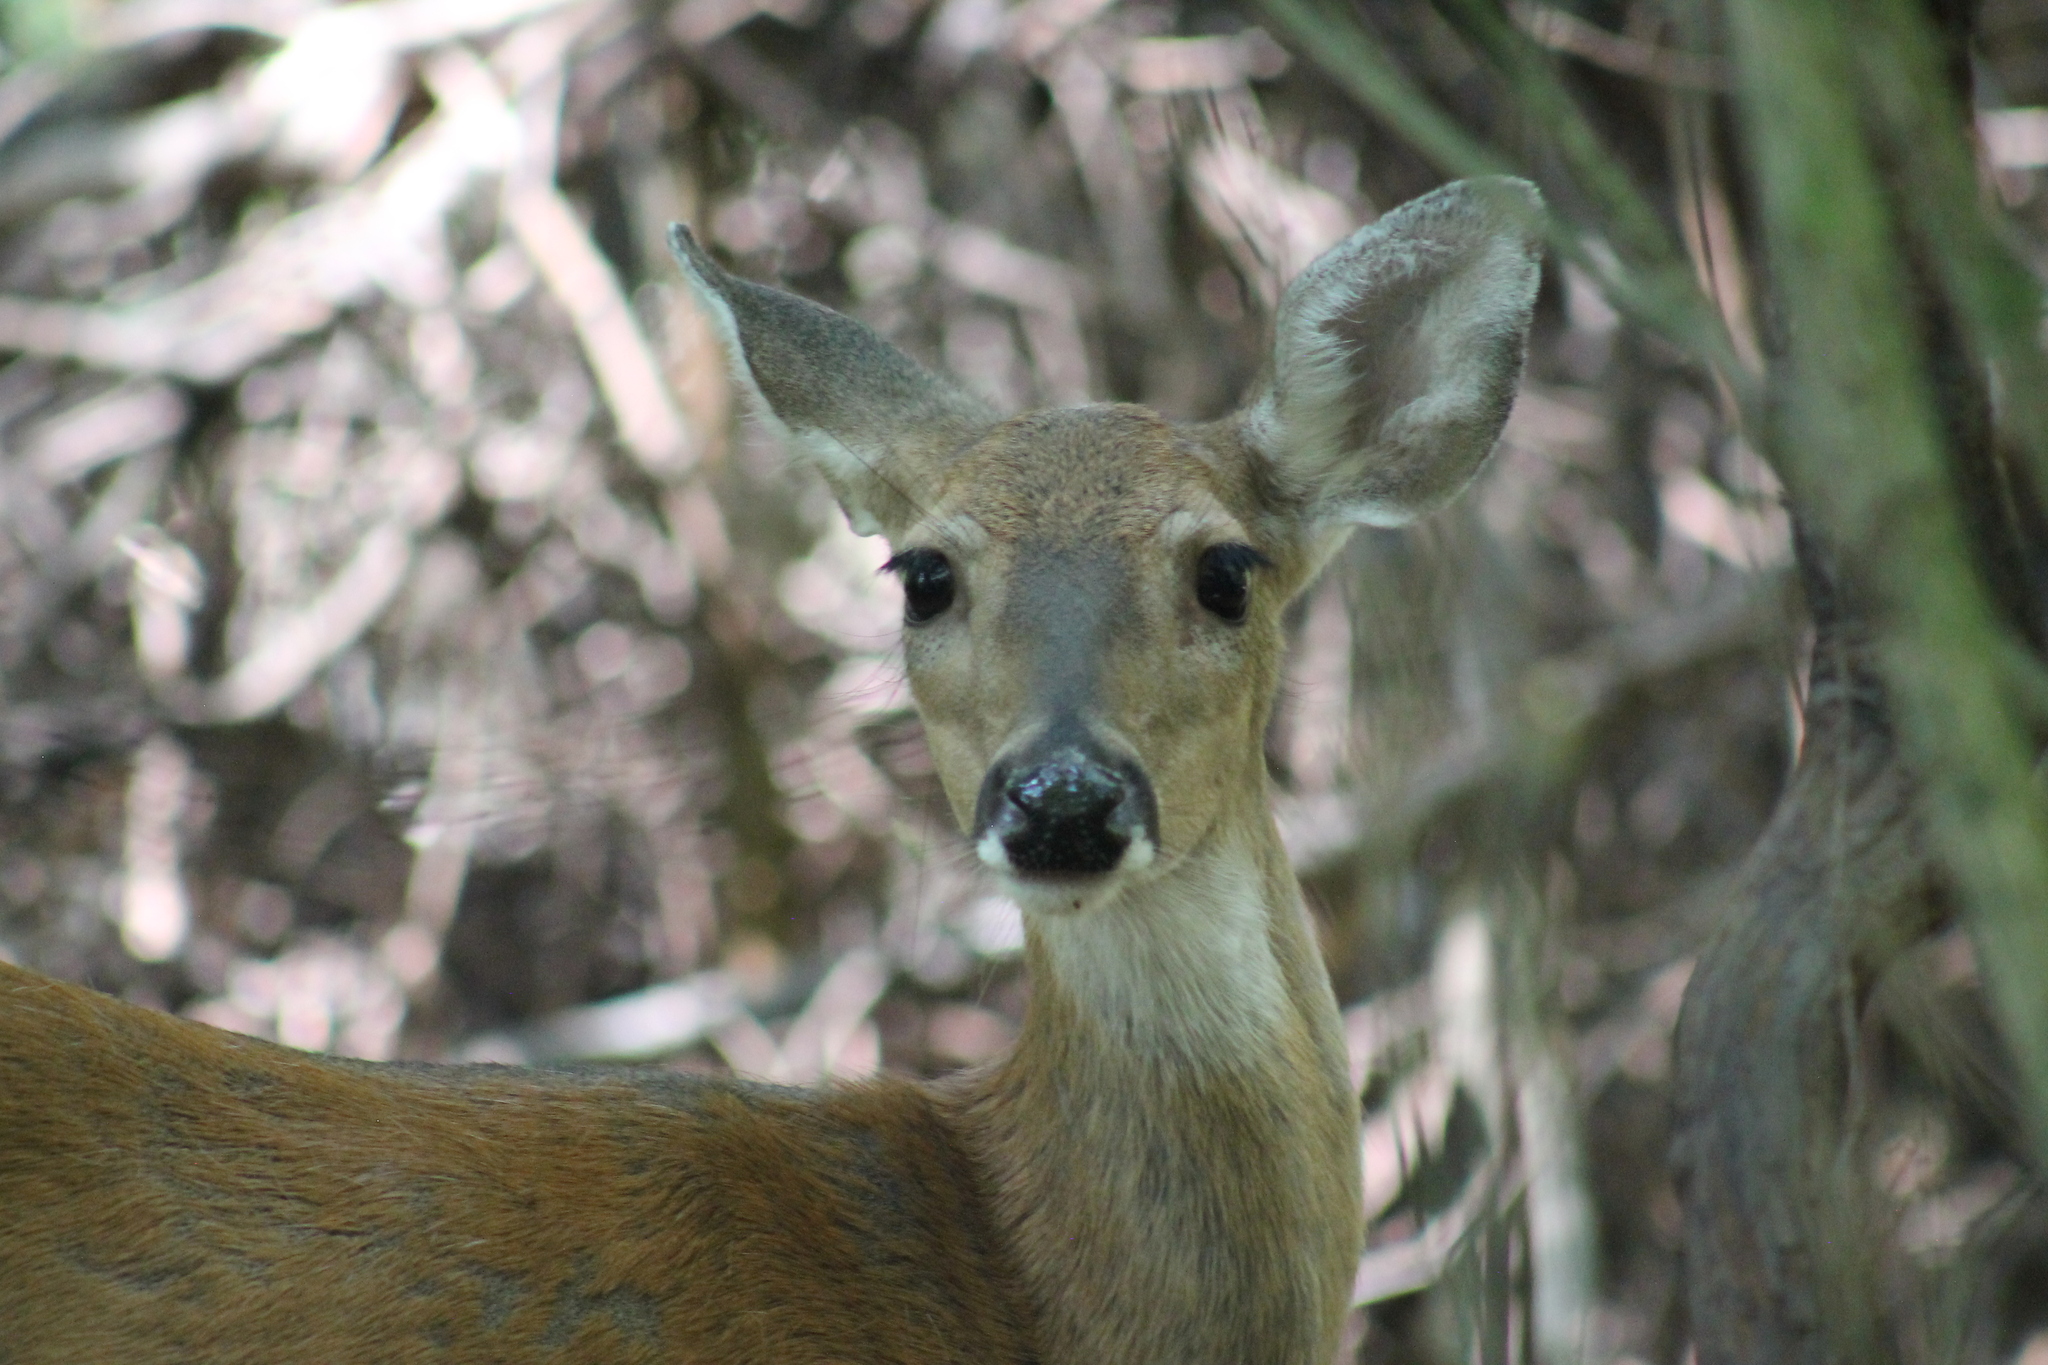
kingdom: Animalia
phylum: Chordata
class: Mammalia
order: Artiodactyla
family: Cervidae
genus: Odocoileus
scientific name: Odocoileus virginianus
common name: White-tailed deer
